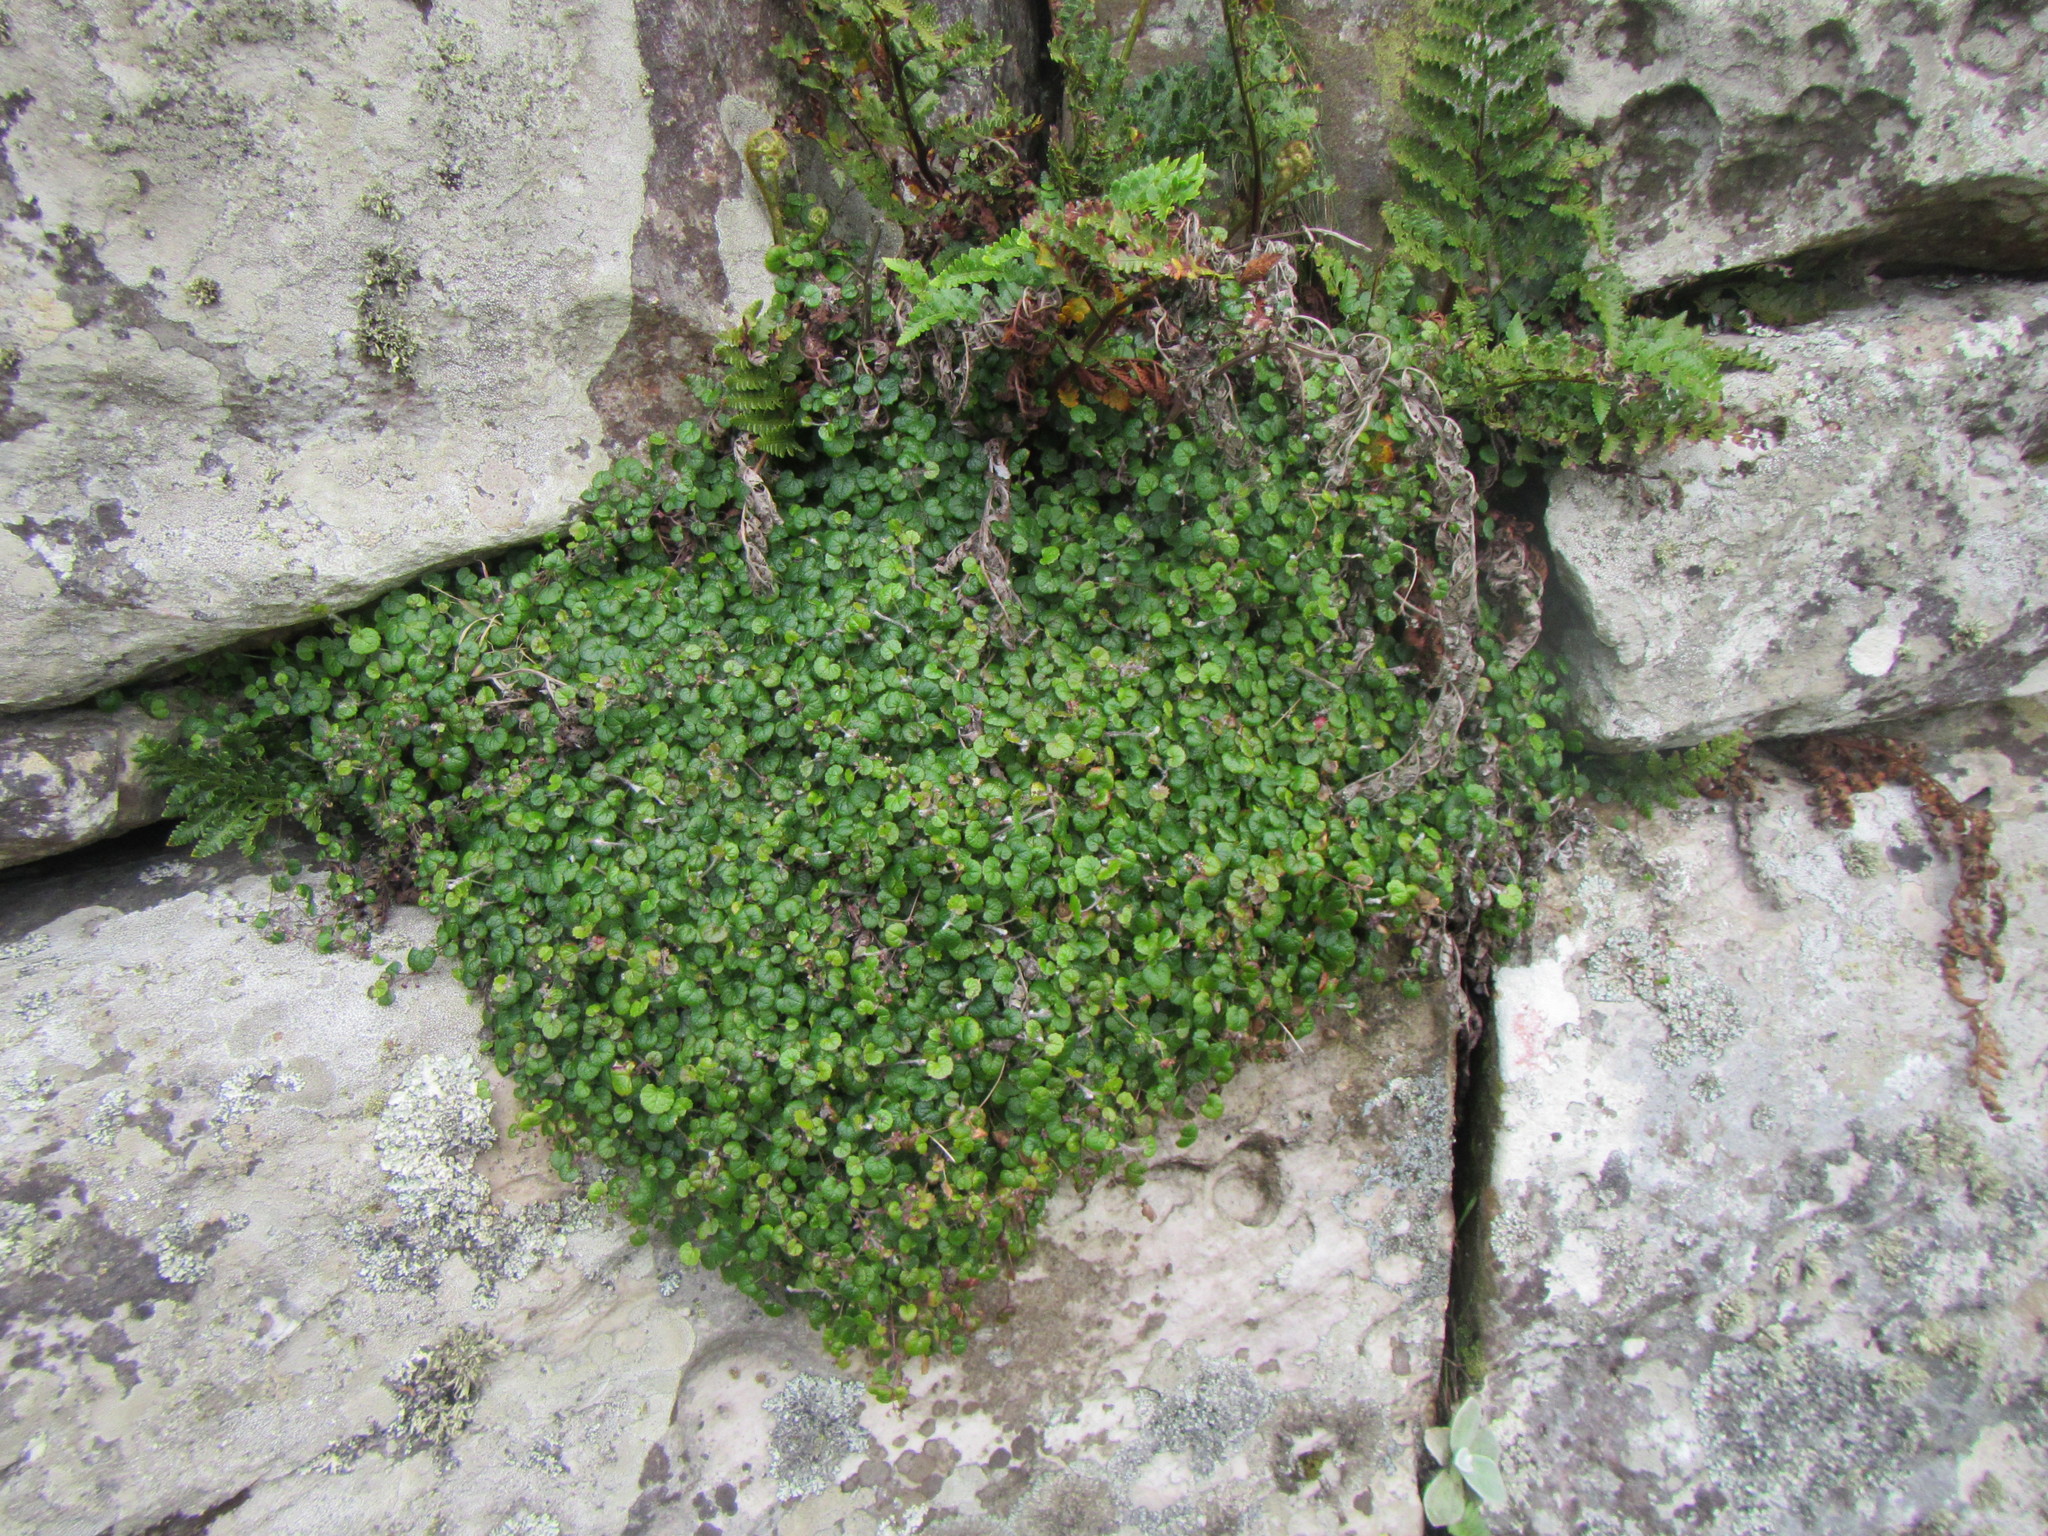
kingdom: Plantae
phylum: Tracheophyta
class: Magnoliopsida
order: Apiales
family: Apiaceae
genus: Centella
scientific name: Centella eriantha
